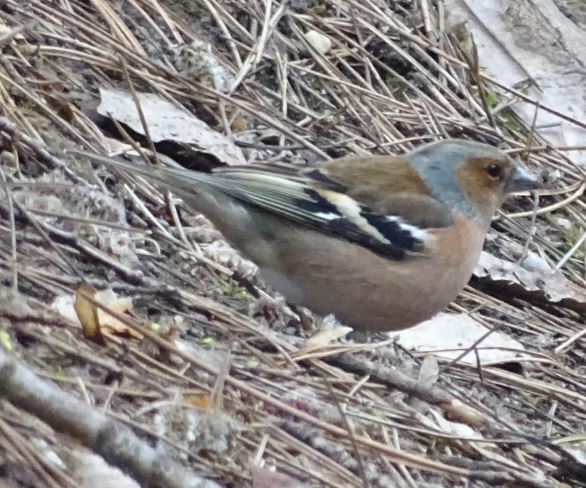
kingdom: Animalia
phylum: Chordata
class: Aves
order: Passeriformes
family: Fringillidae
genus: Fringilla
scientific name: Fringilla coelebs
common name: Common chaffinch
